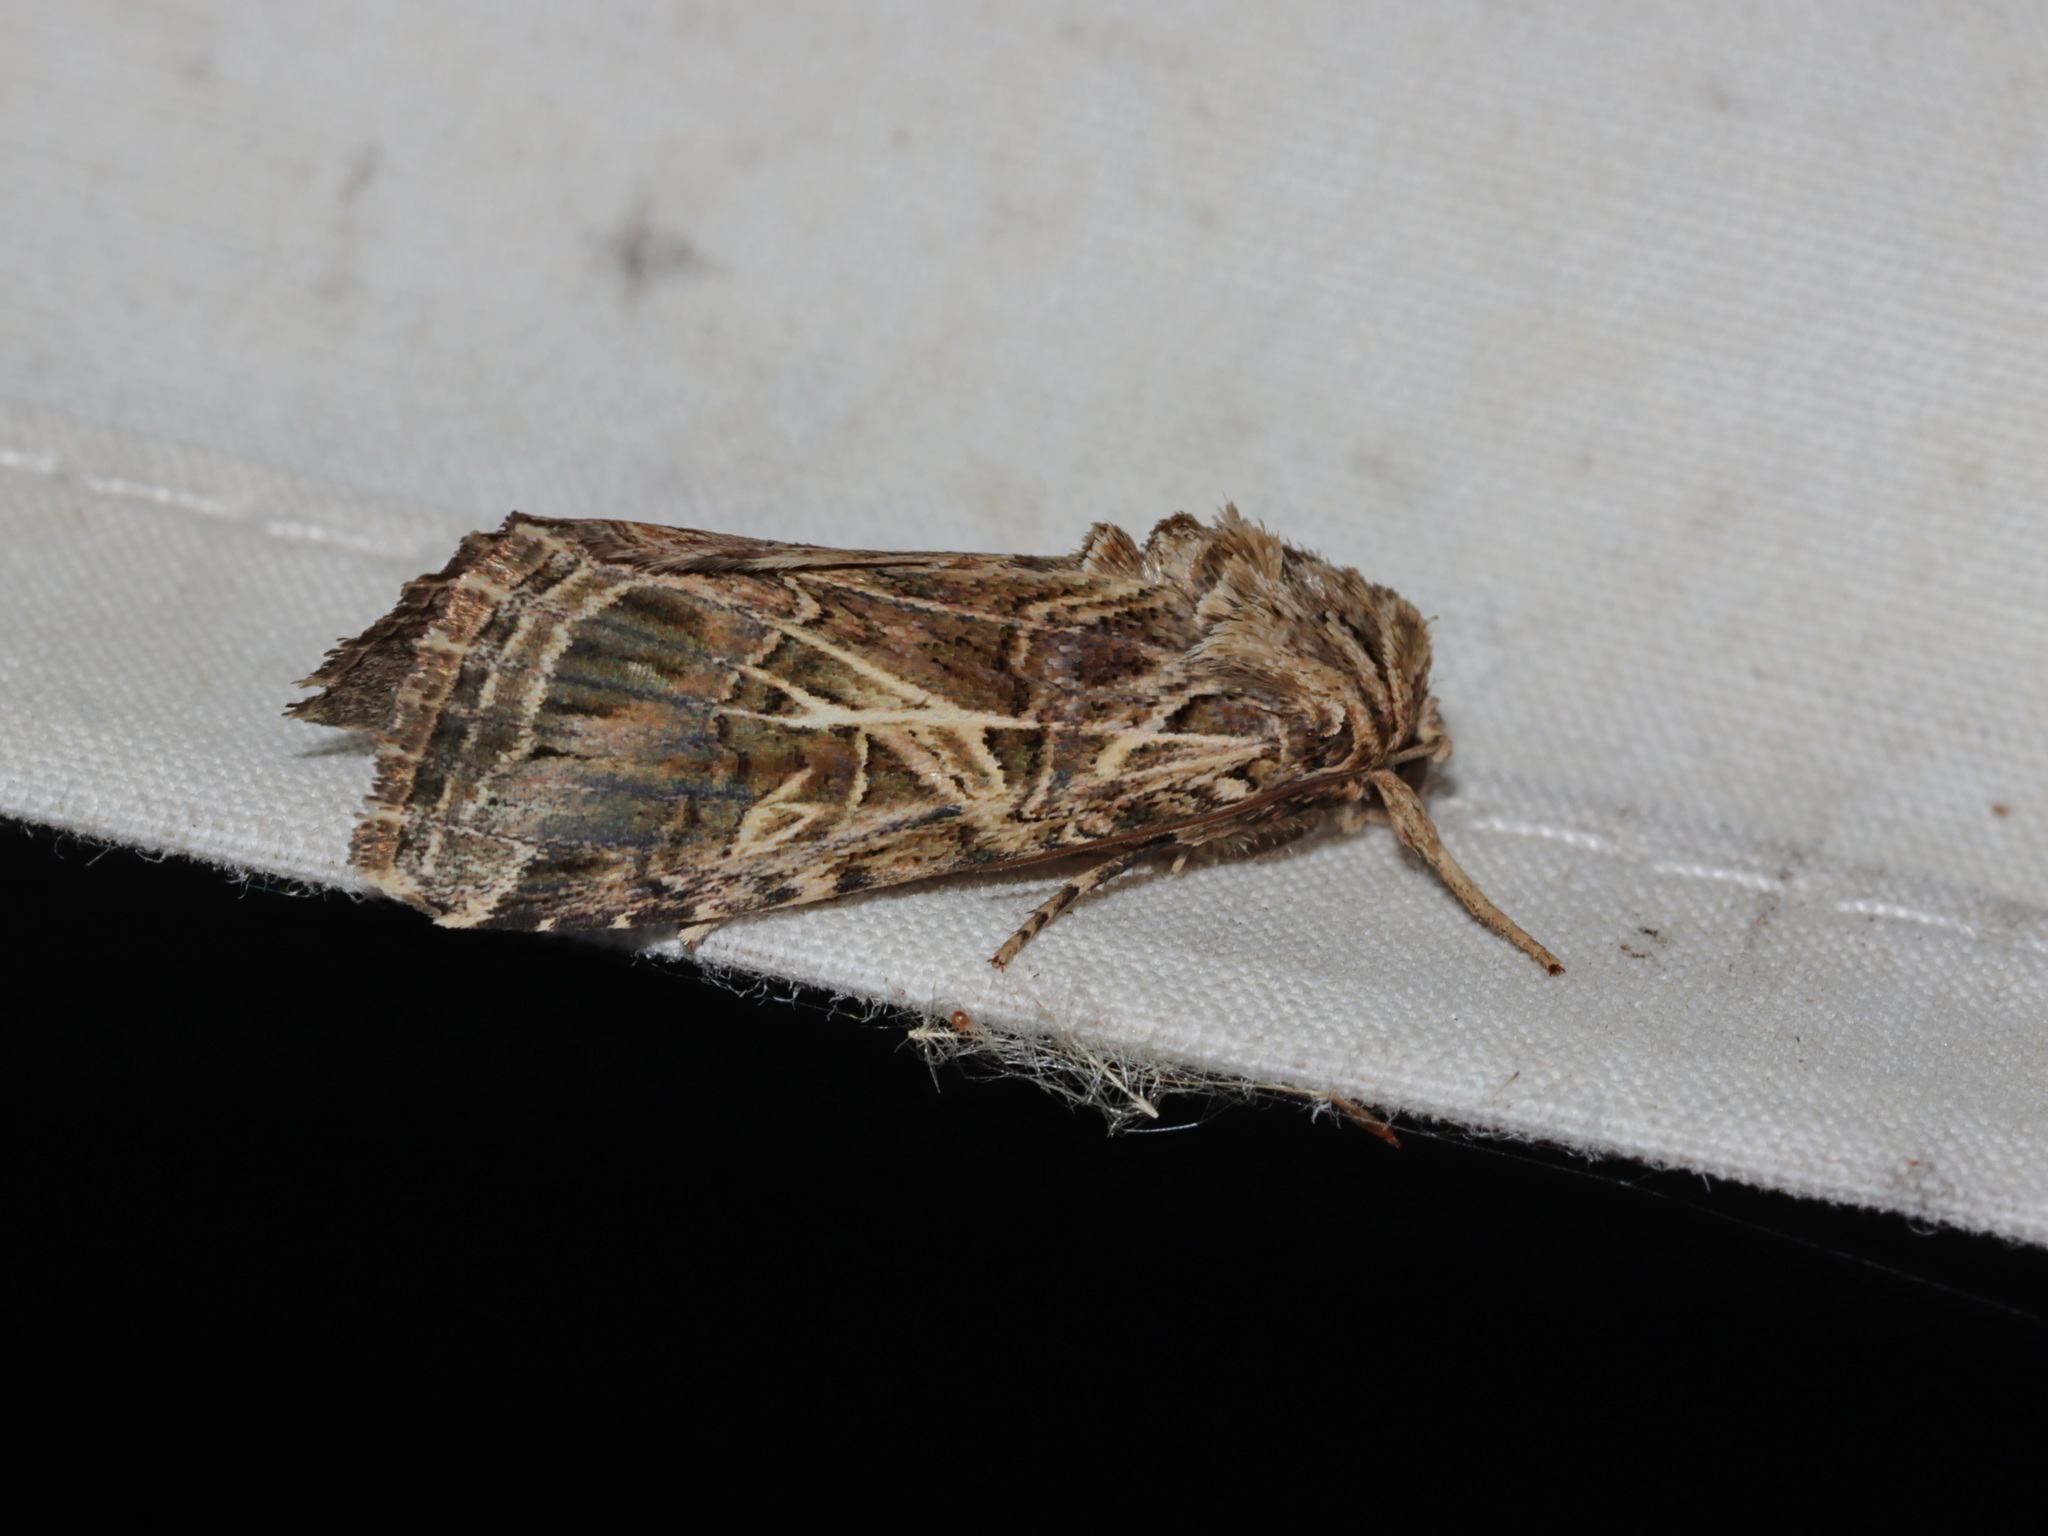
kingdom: Animalia
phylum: Arthropoda
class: Insecta
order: Lepidoptera
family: Noctuidae
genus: Spodoptera
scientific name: Spodoptera litura
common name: Asian cotton leafworm
